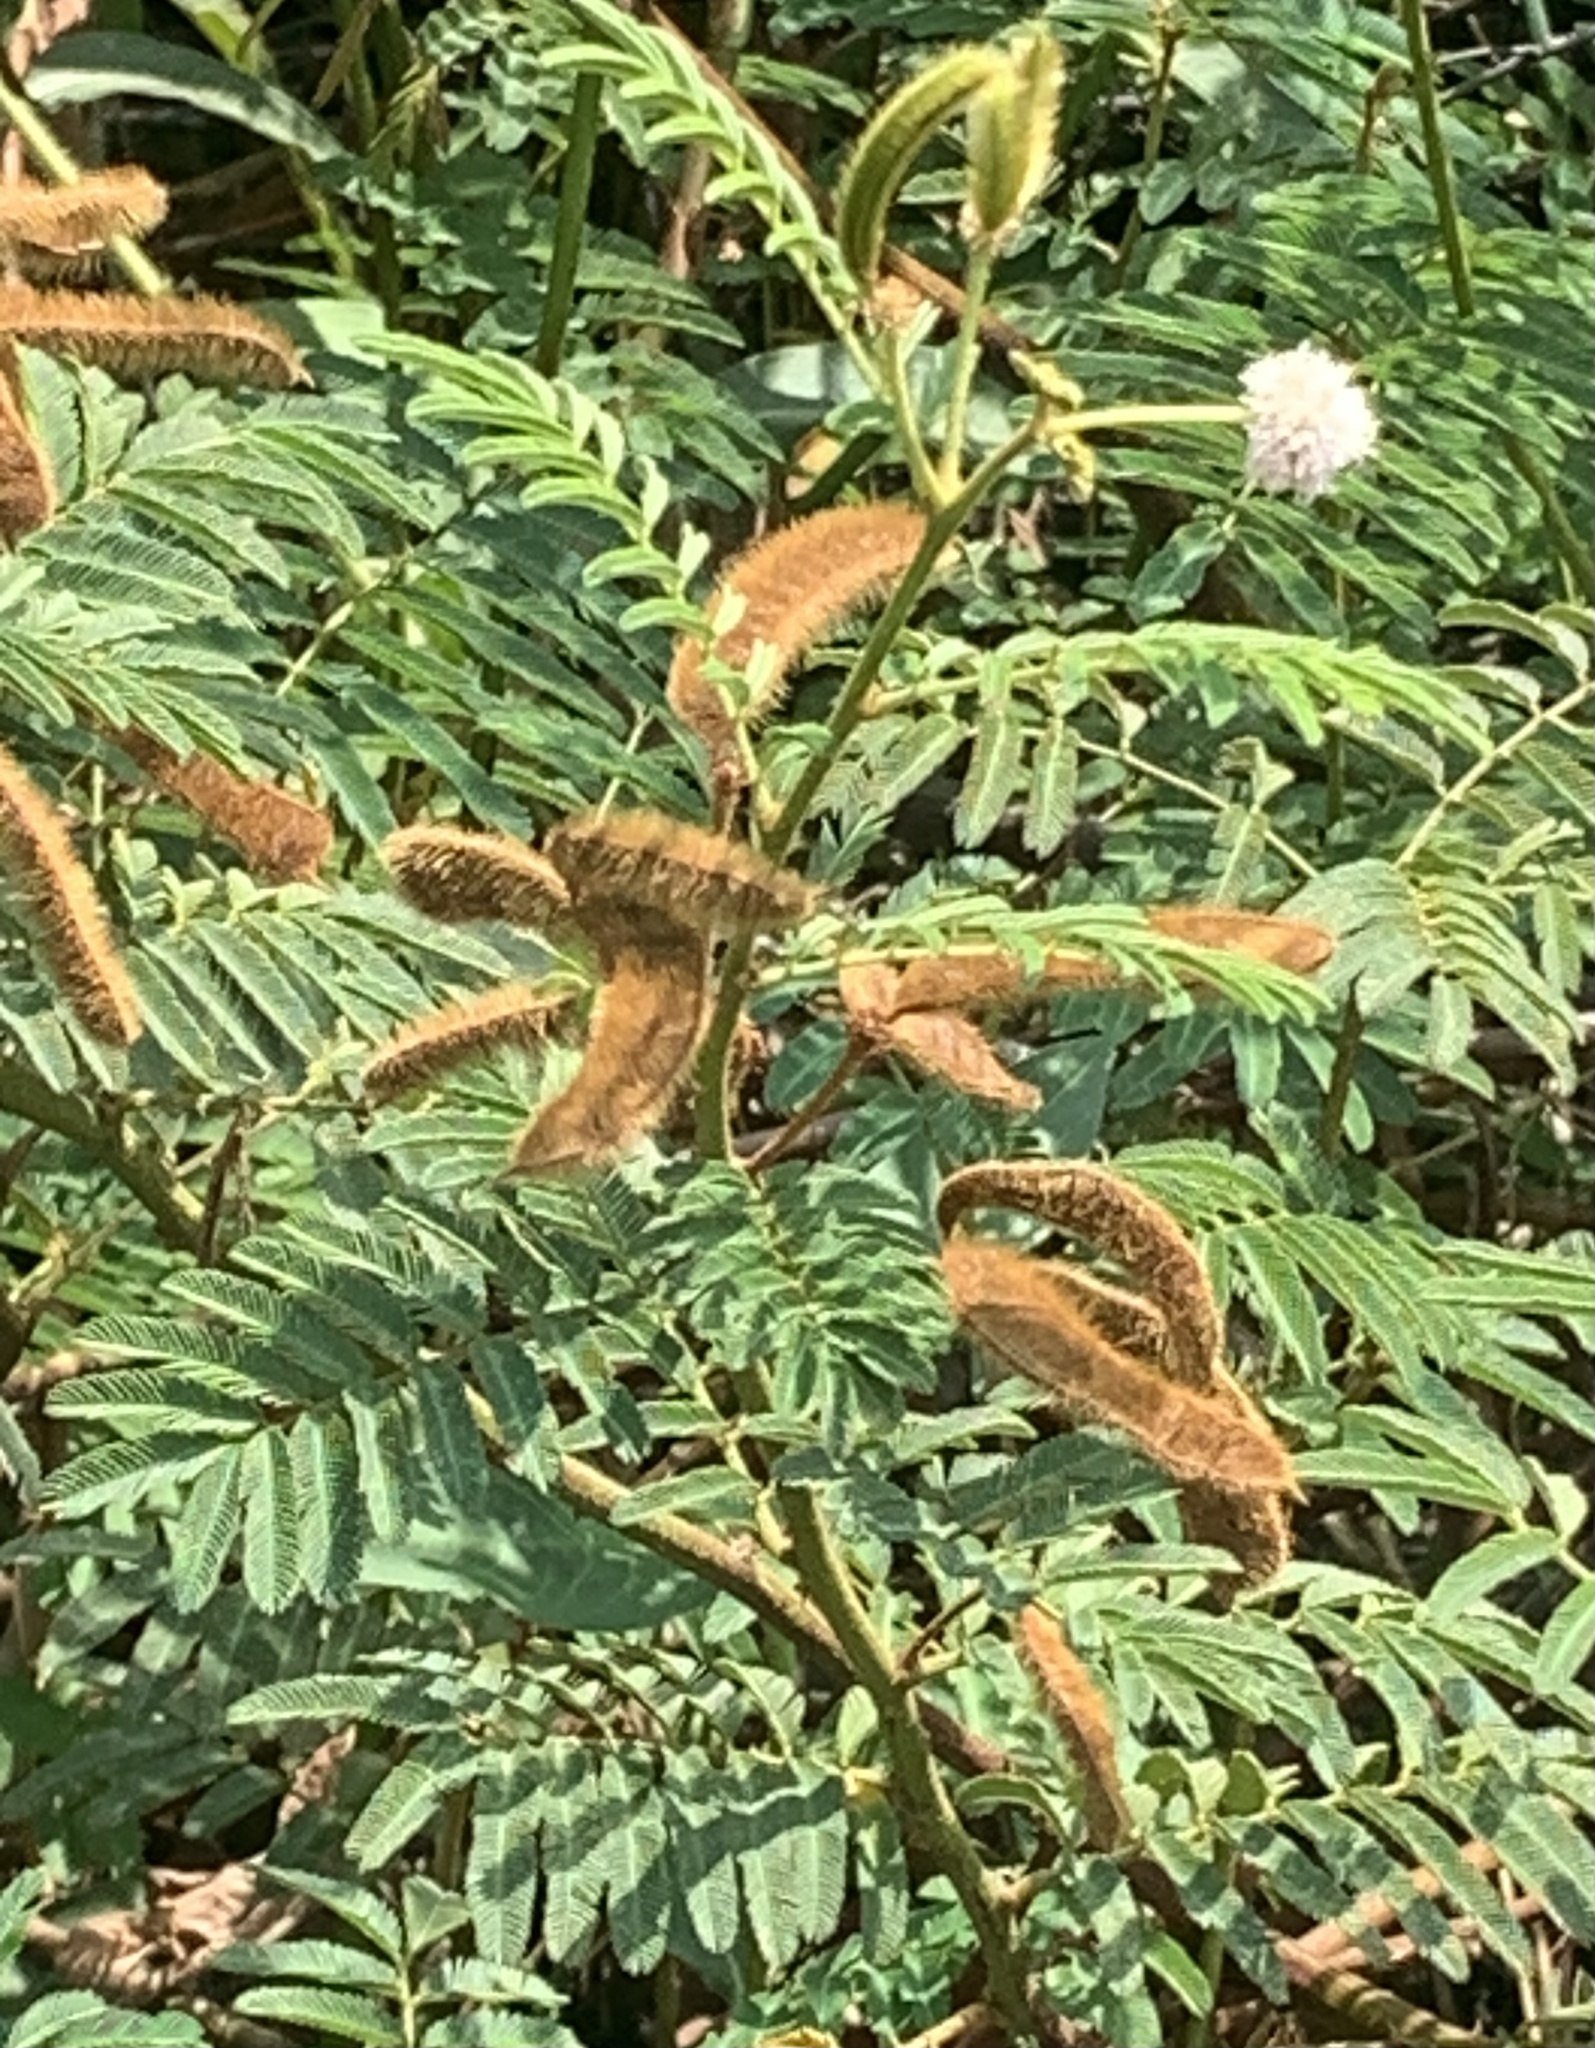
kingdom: Plantae
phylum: Tracheophyta
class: Magnoliopsida
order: Fabales
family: Fabaceae
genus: Mimosa
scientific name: Mimosa pigra
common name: Black mimosa
